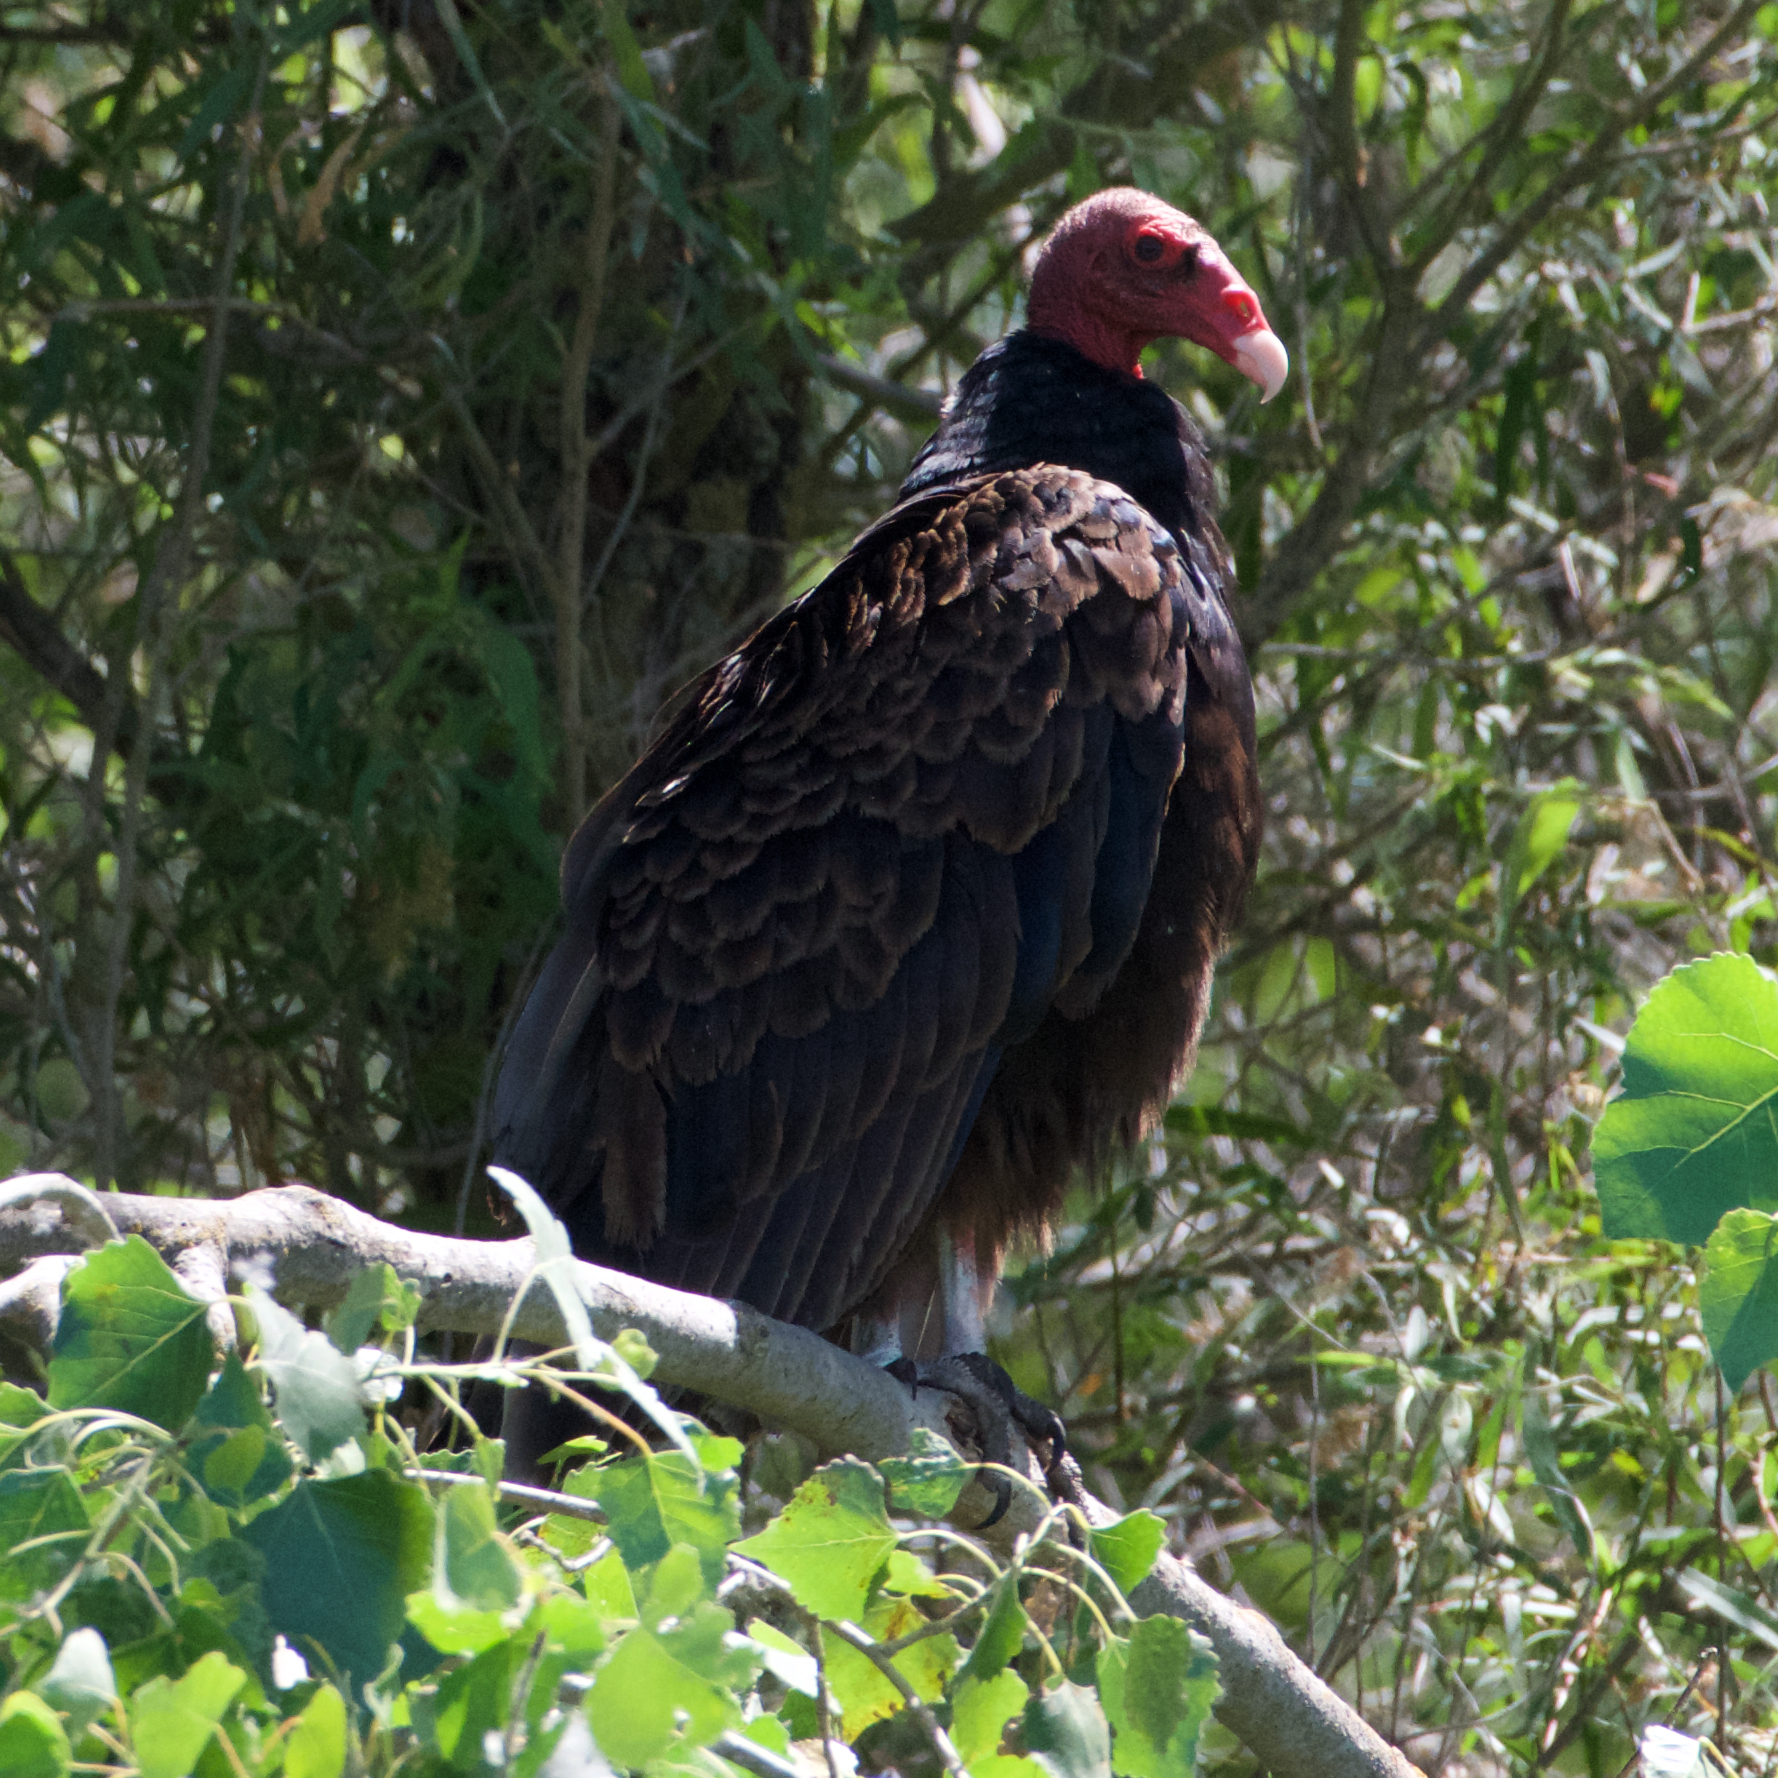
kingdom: Animalia
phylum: Chordata
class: Aves
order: Accipitriformes
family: Cathartidae
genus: Cathartes
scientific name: Cathartes aura
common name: Turkey vulture
